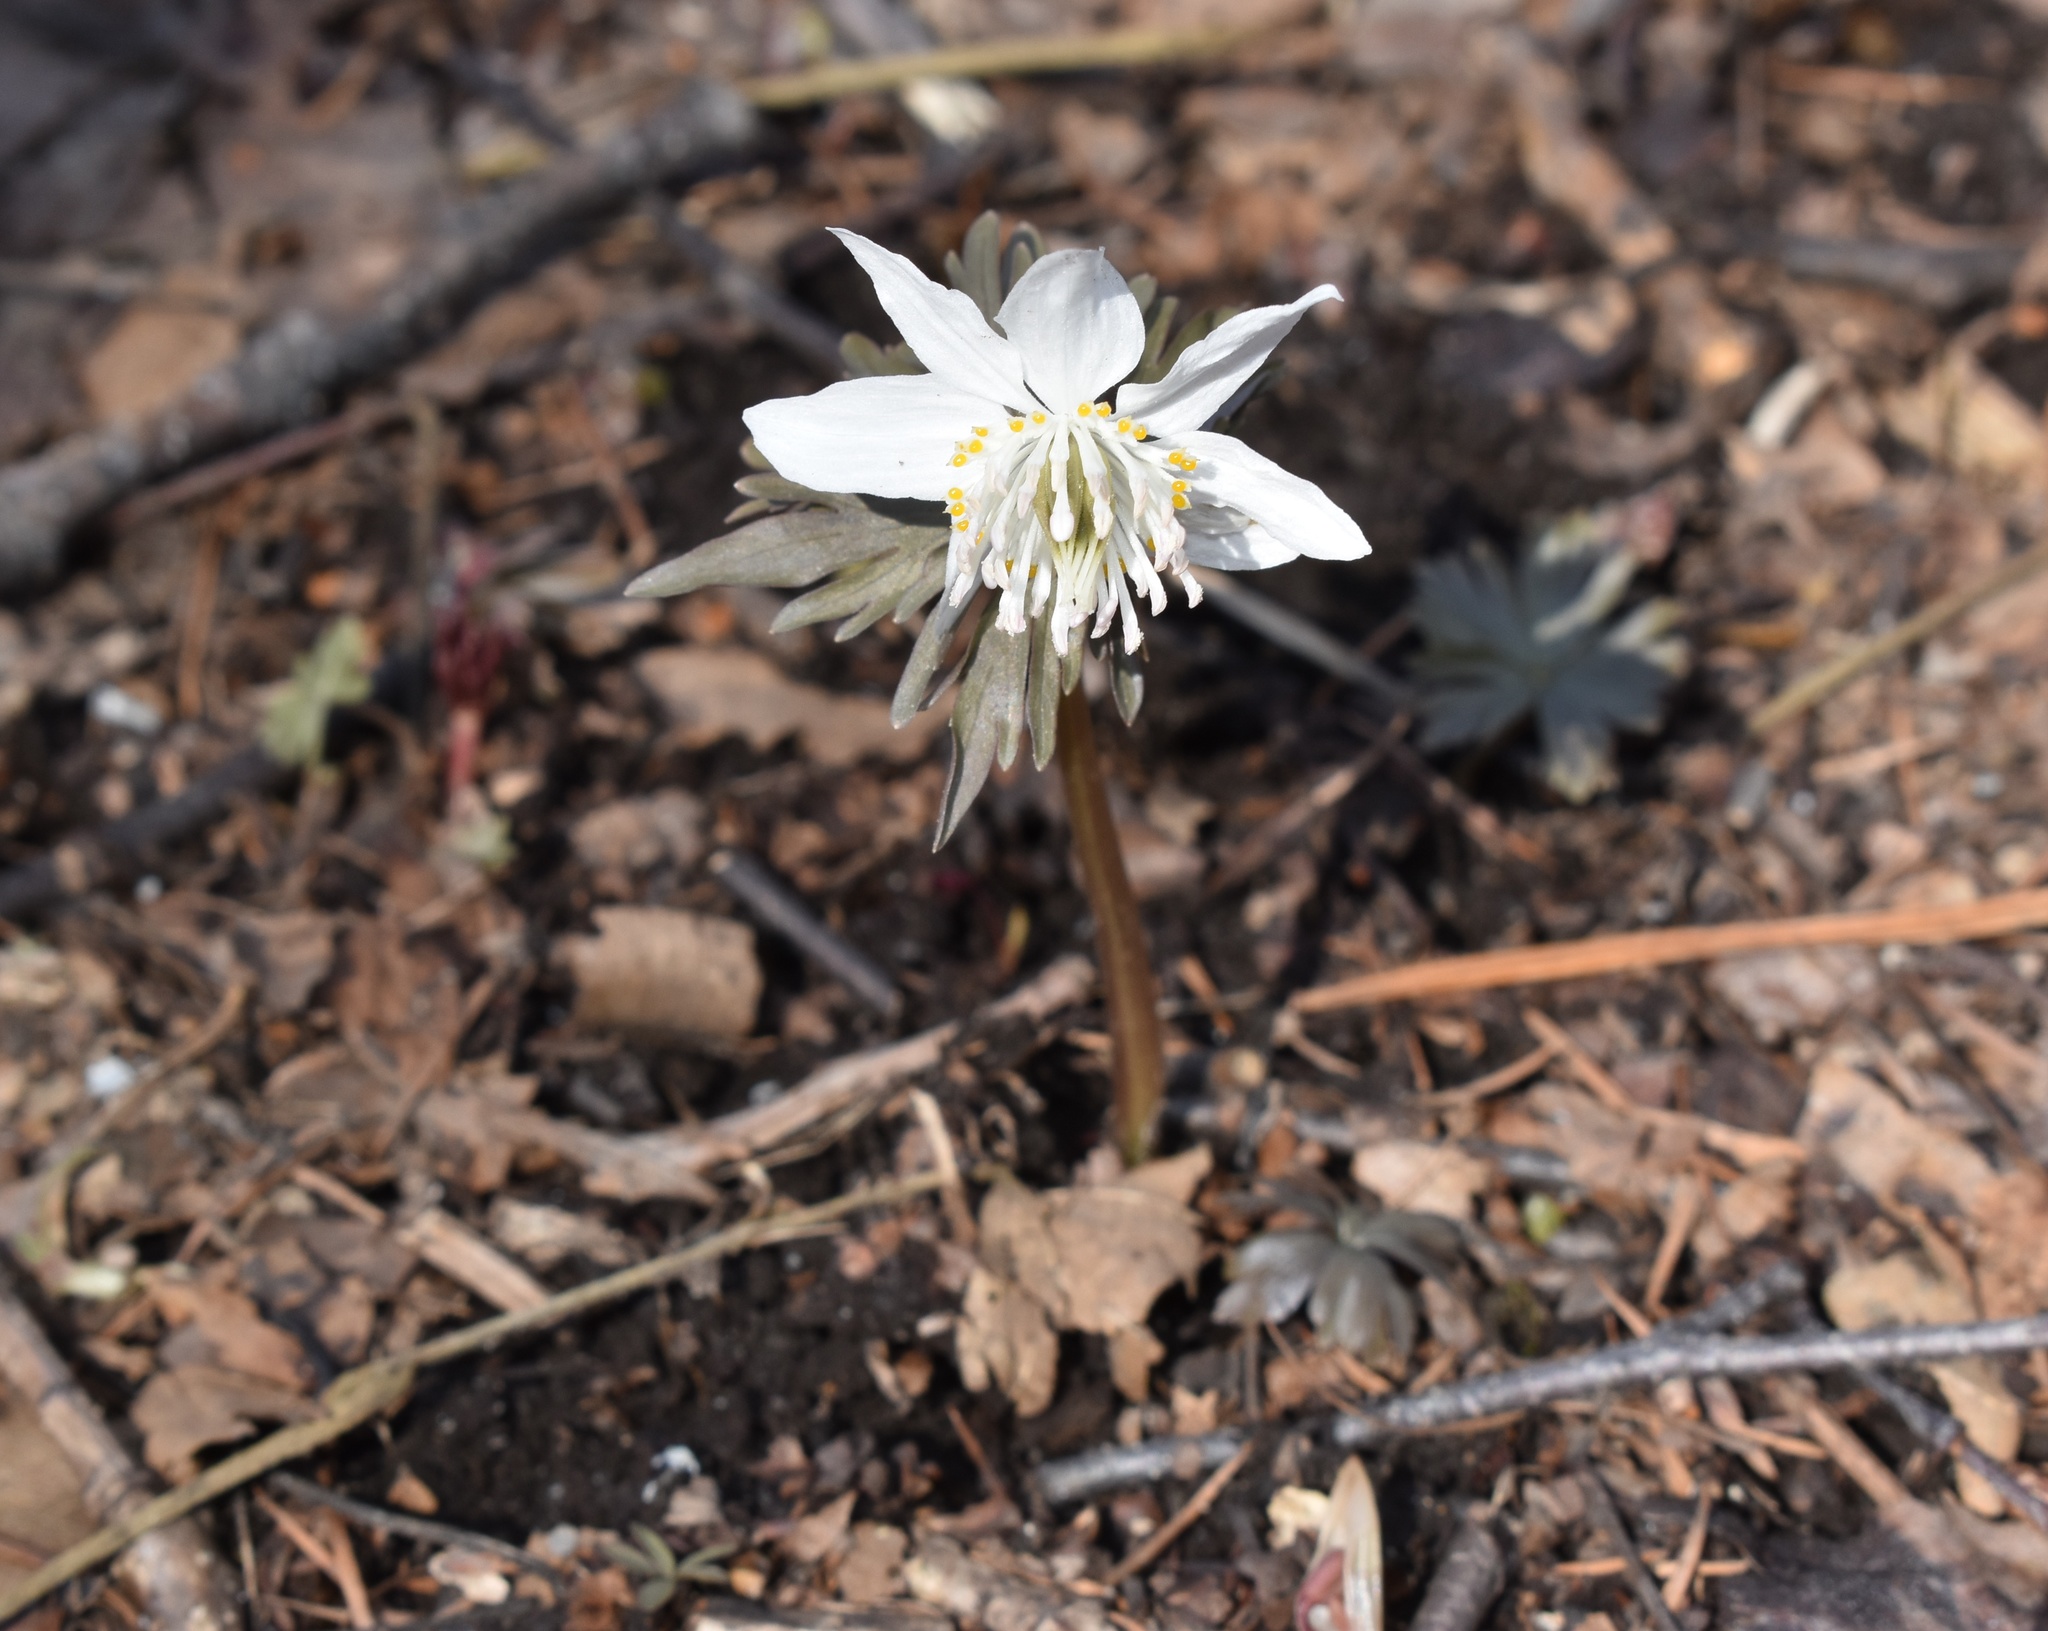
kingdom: Plantae
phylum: Tracheophyta
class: Magnoliopsida
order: Ranunculales
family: Ranunculaceae
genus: Eranthis
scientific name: Eranthis stellata
